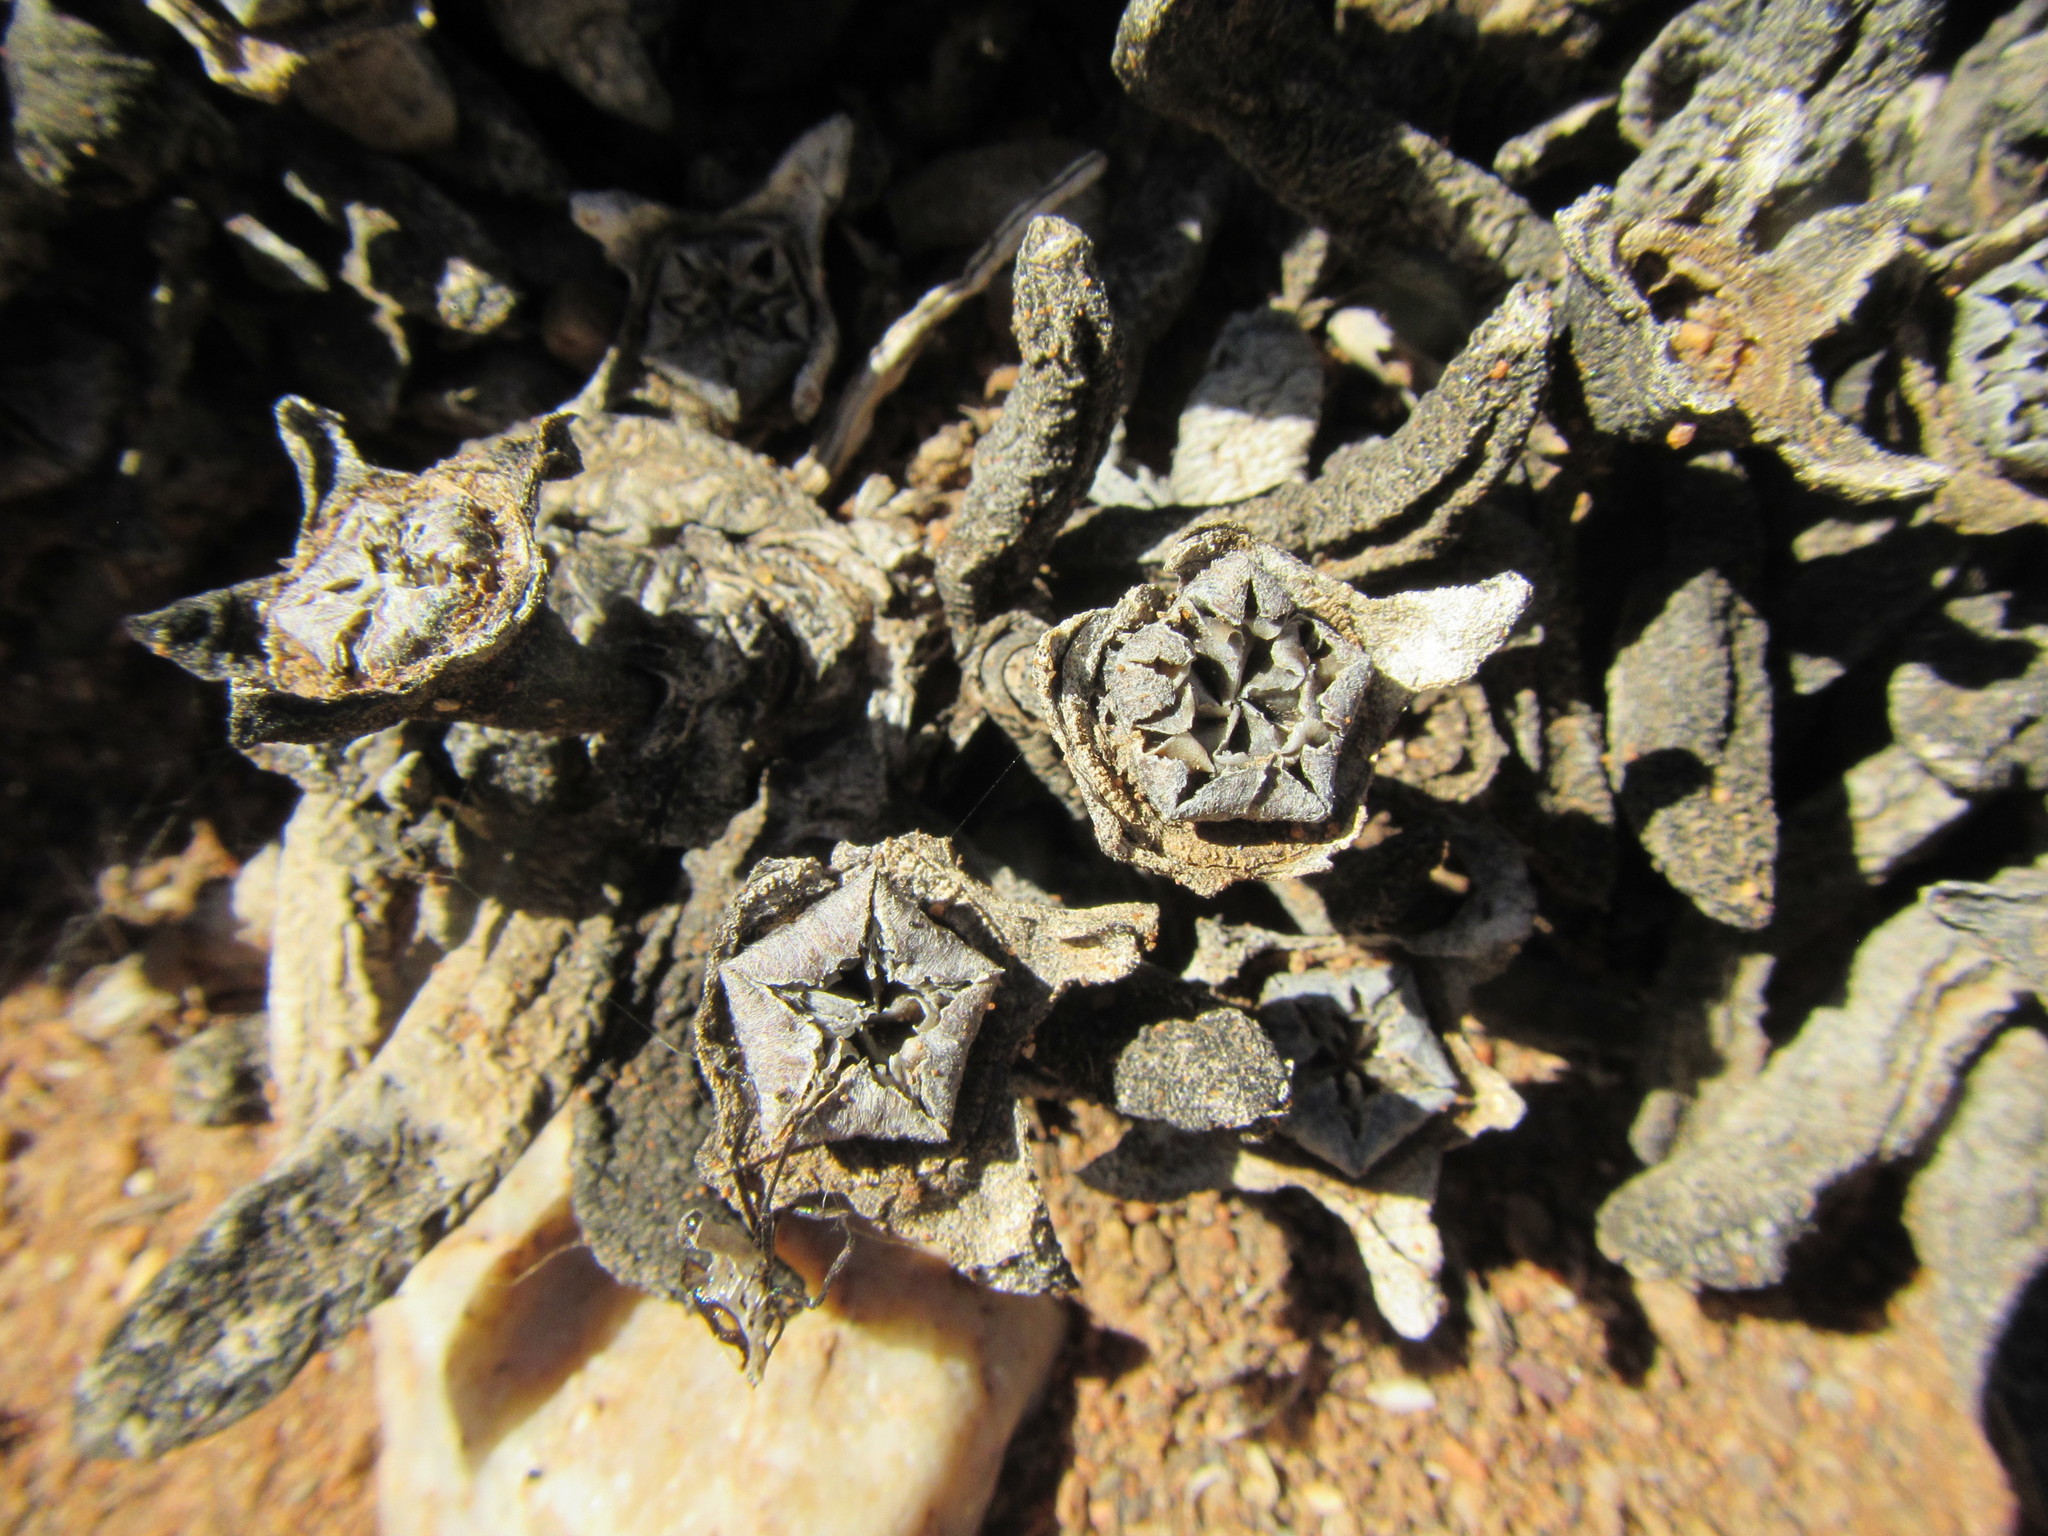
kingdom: Plantae
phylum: Tracheophyta
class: Magnoliopsida
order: Caryophyllales
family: Aizoaceae
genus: Cylindrophyllum
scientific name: Cylindrophyllum tugwelliae
